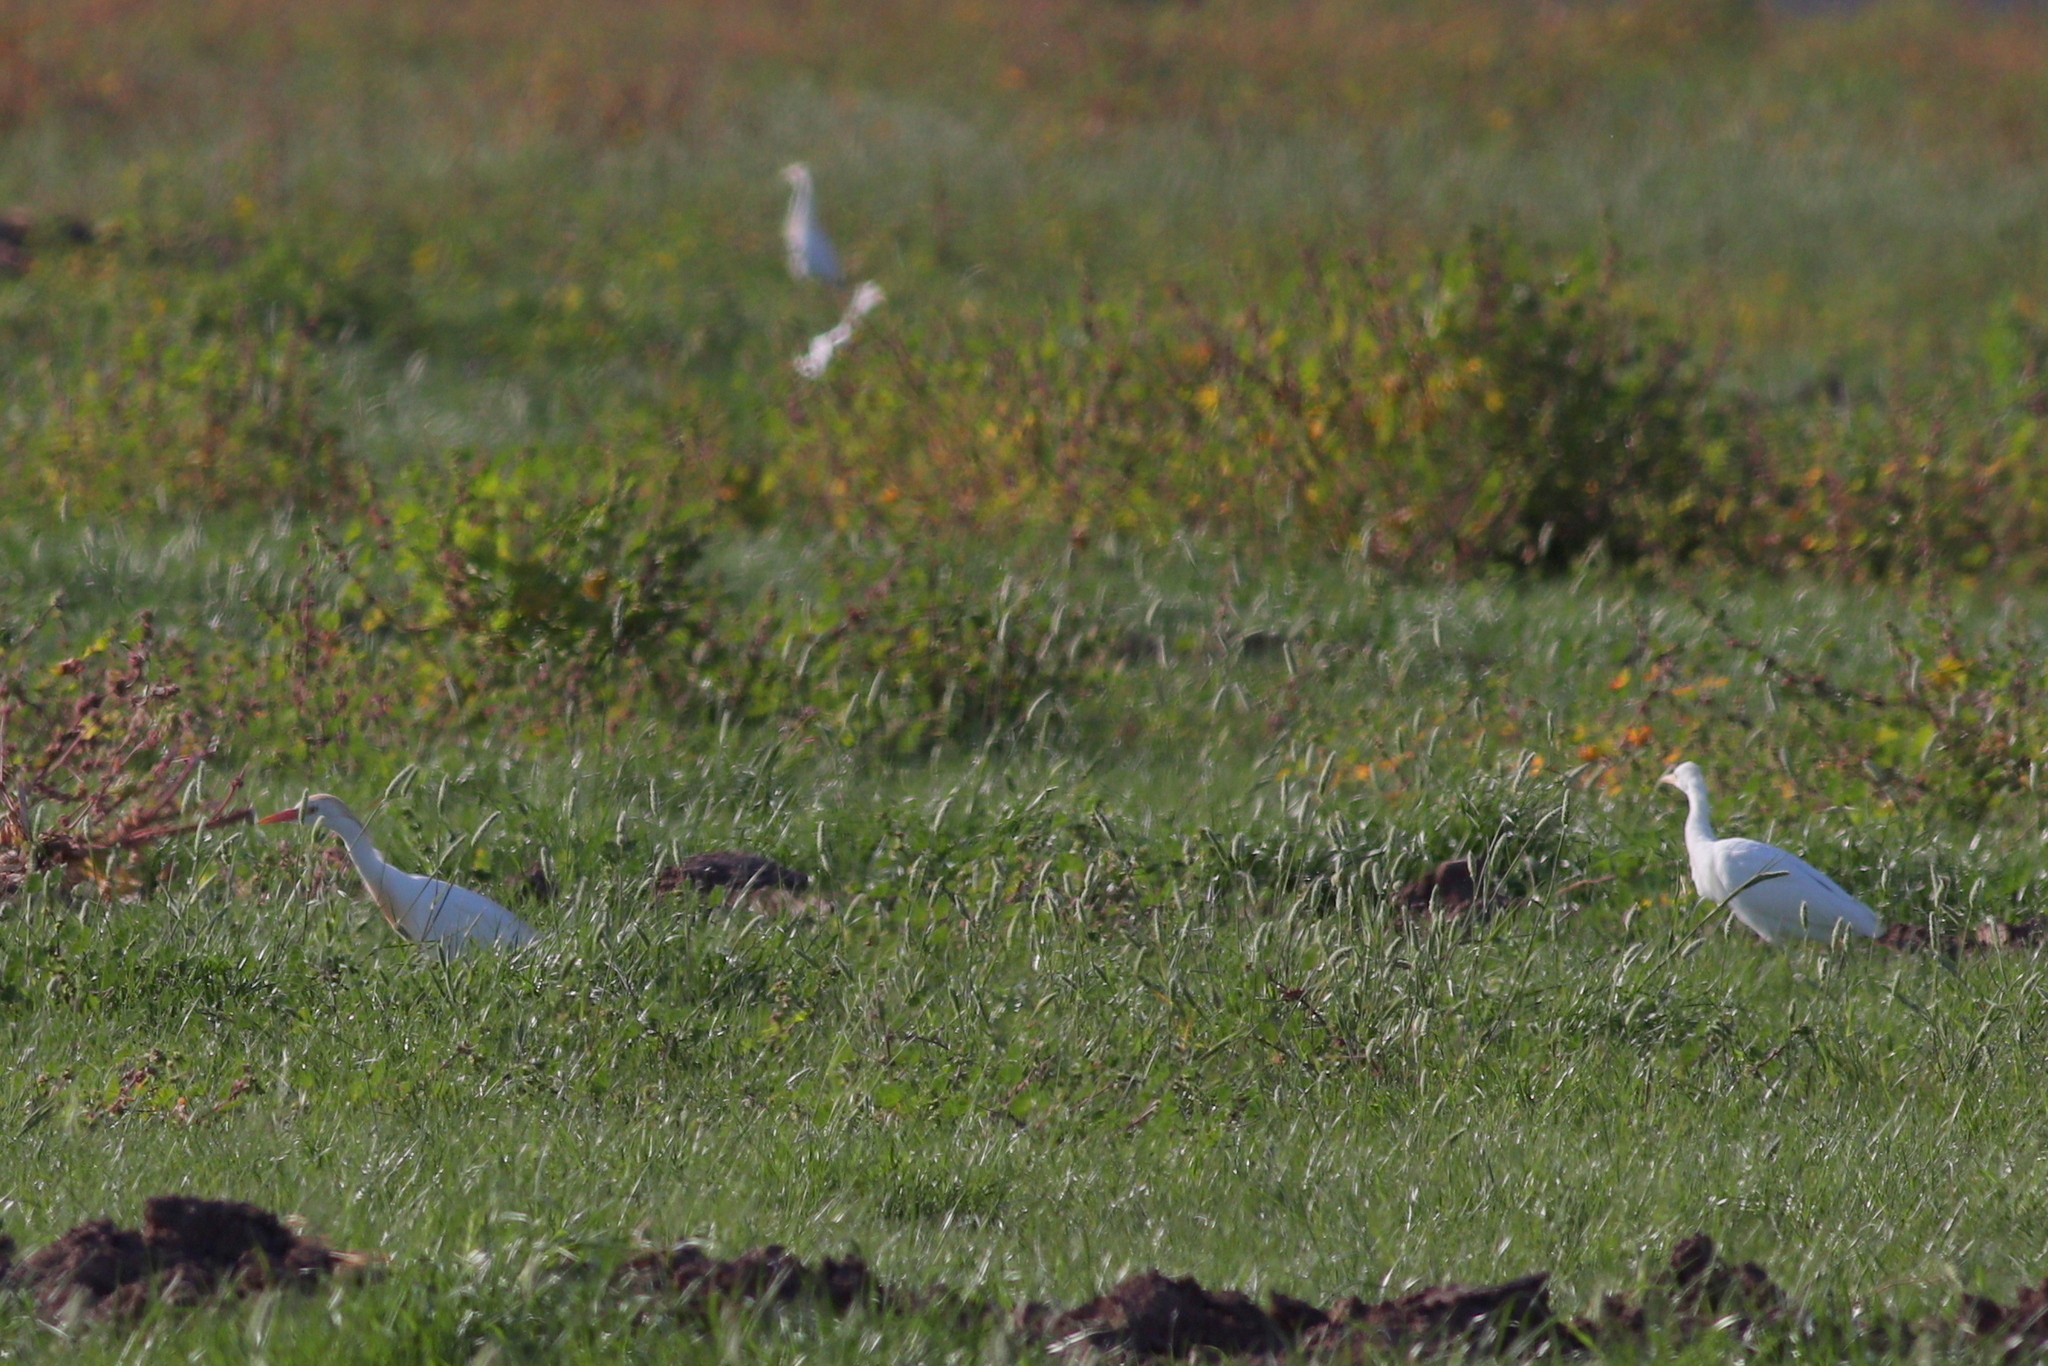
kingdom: Animalia
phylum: Chordata
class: Aves
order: Pelecaniformes
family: Ardeidae
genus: Bubulcus
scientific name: Bubulcus ibis
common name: Cattle egret
